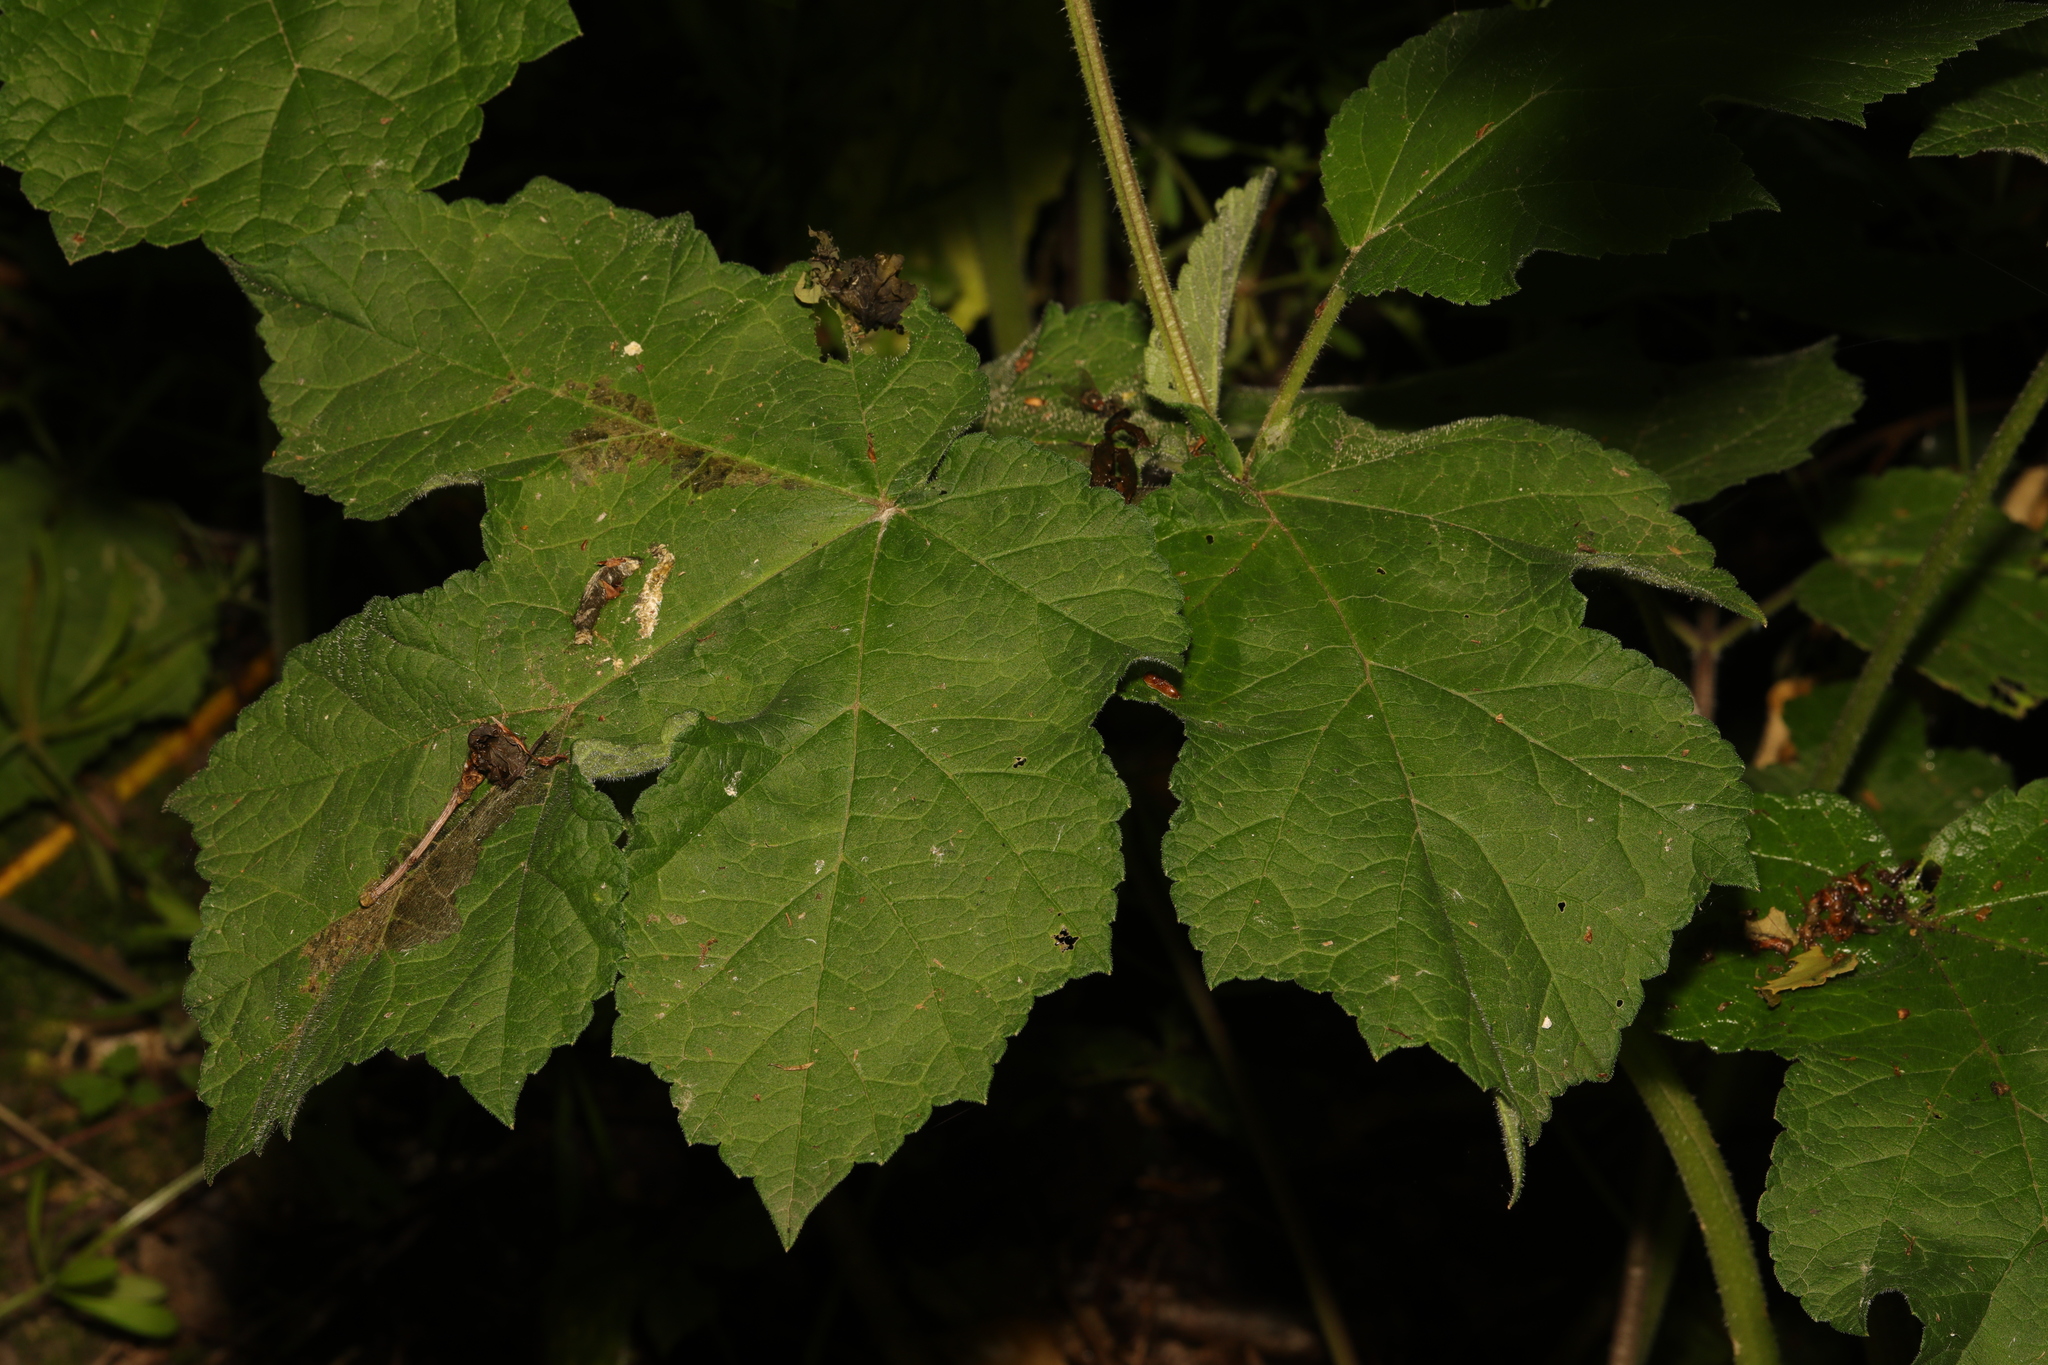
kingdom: Plantae
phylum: Tracheophyta
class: Magnoliopsida
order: Apiales
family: Apiaceae
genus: Heracleum
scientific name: Heracleum sphondylium
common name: Hogweed
